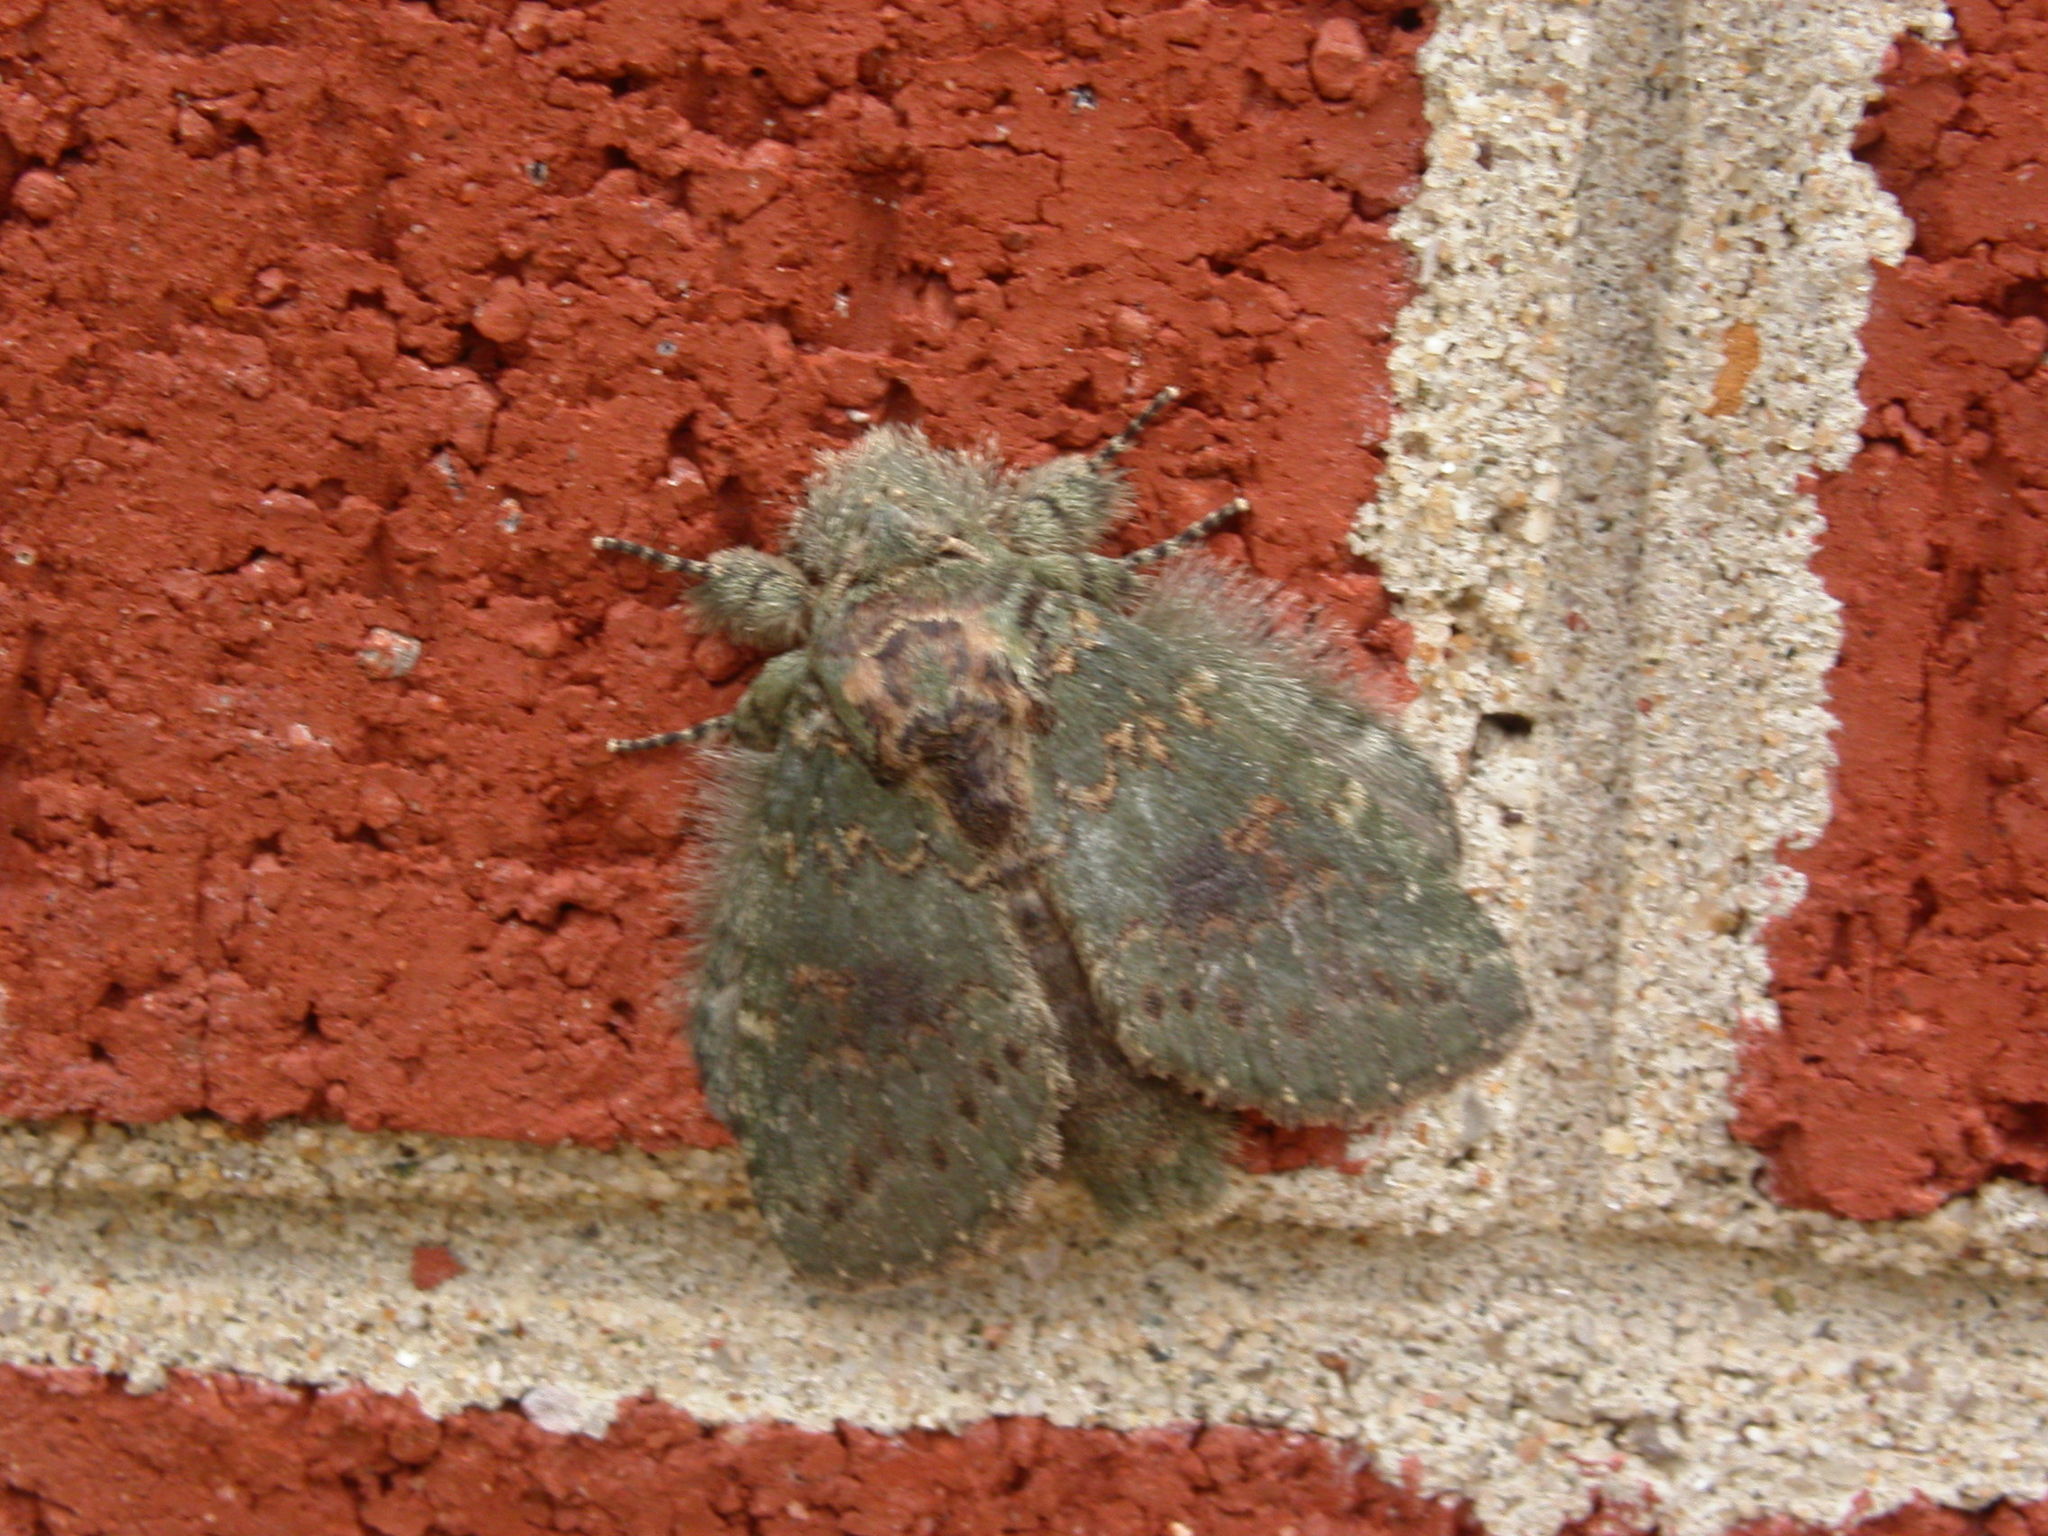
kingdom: Animalia
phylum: Arthropoda
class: Insecta
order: Lepidoptera
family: Notodontidae
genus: Disphragis
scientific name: Disphragis Cecrita biundata
